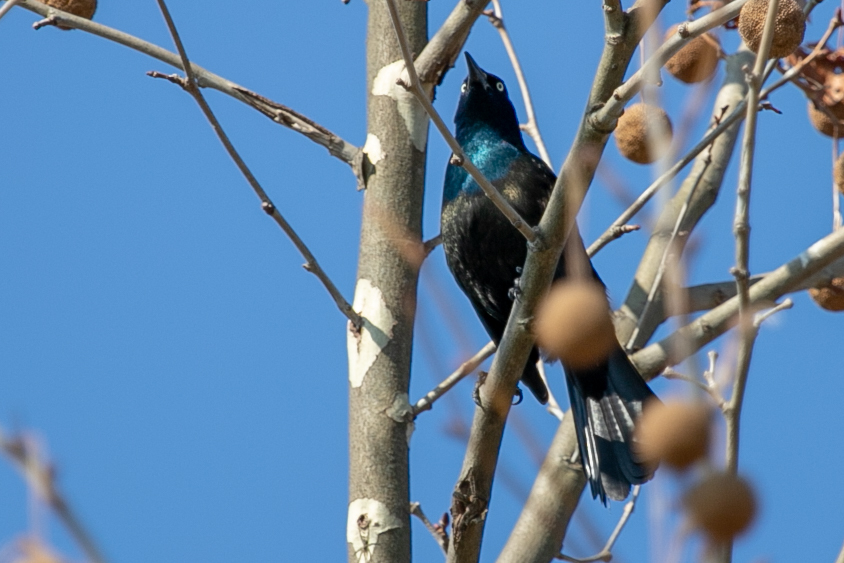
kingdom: Animalia
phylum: Chordata
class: Aves
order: Passeriformes
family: Icteridae
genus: Quiscalus
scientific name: Quiscalus quiscula
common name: Common grackle
